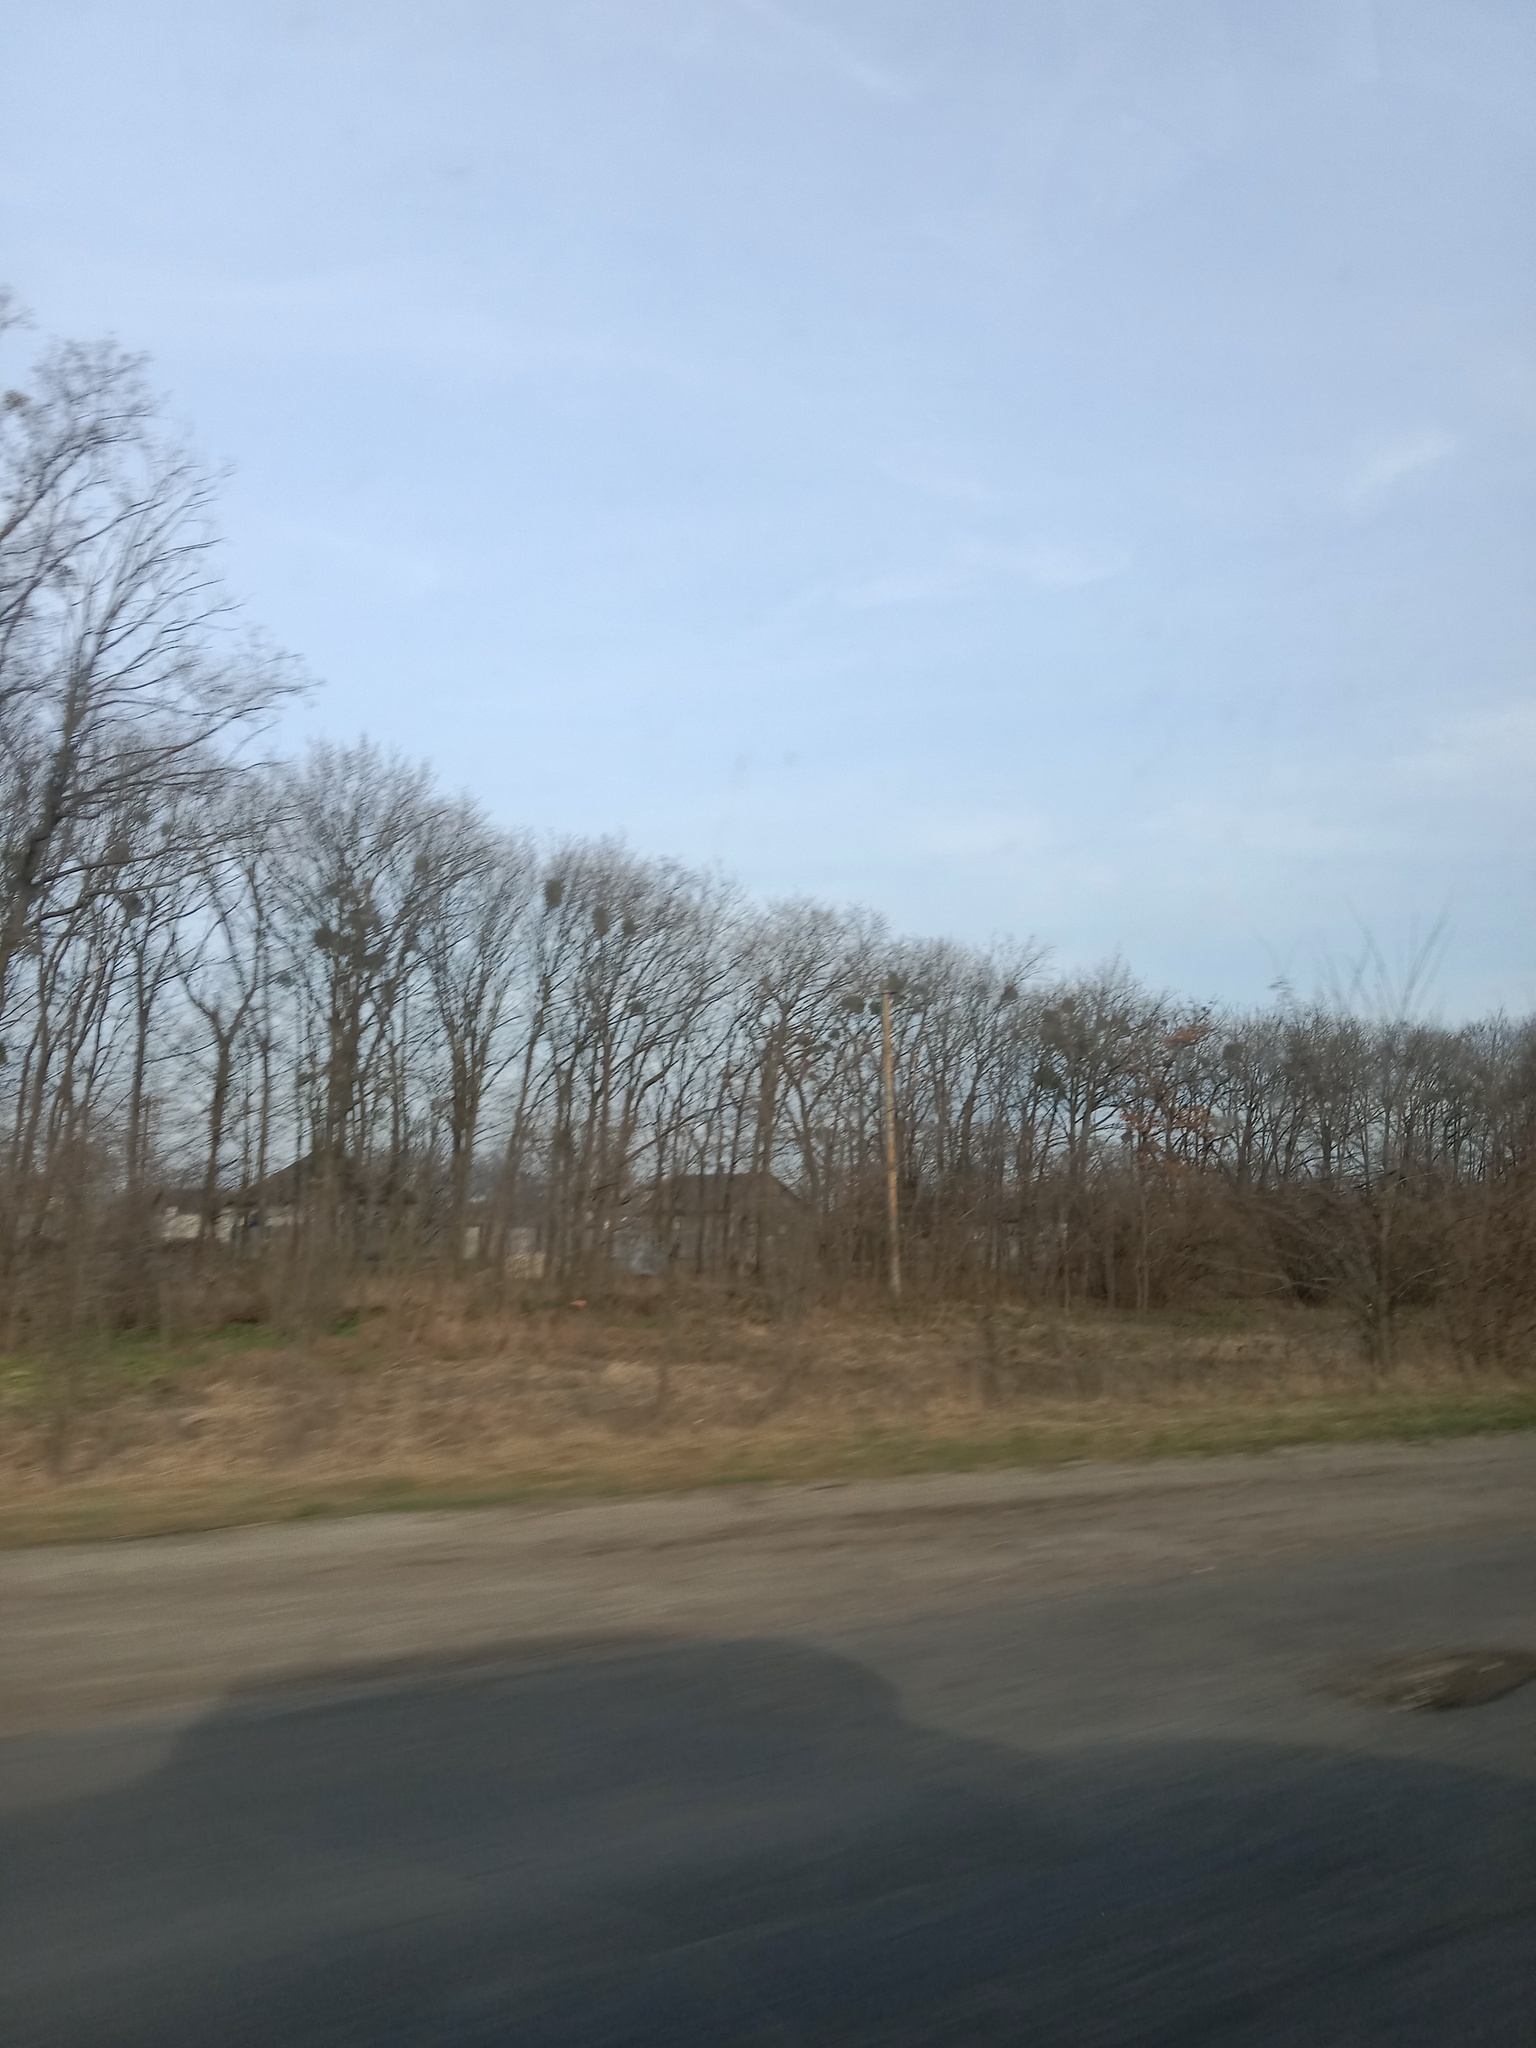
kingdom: Plantae
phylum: Tracheophyta
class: Magnoliopsida
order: Santalales
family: Viscaceae
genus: Viscum
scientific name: Viscum album
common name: Mistletoe
